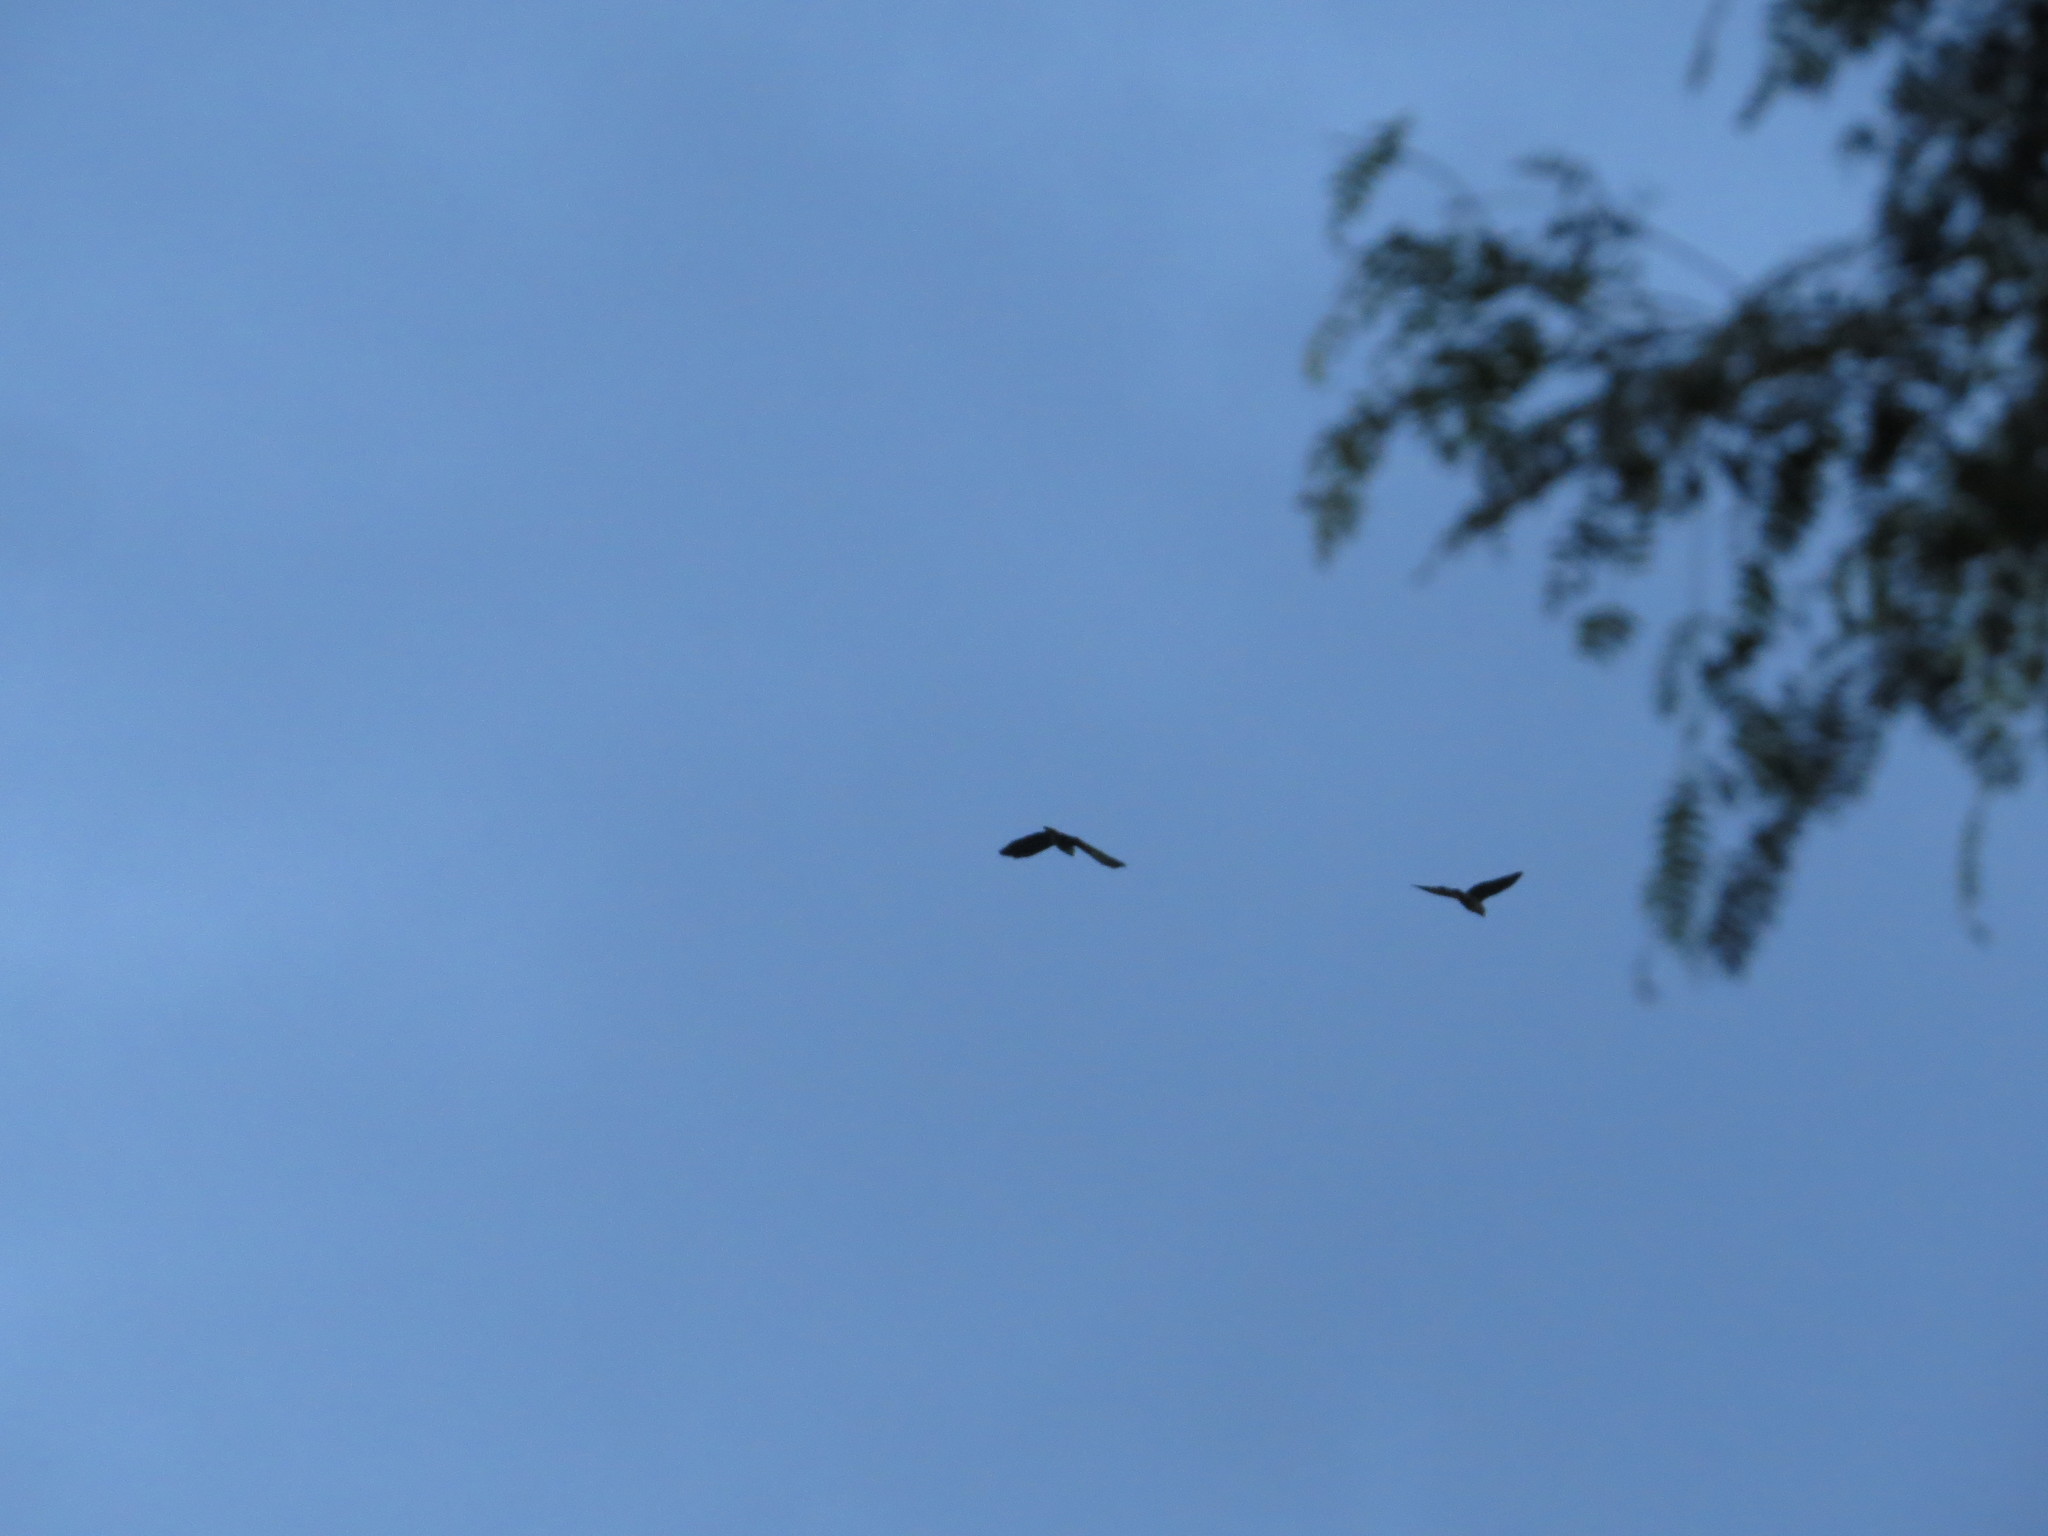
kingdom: Animalia
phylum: Chordata
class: Aves
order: Psittaciformes
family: Psittacidae
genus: Pionus
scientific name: Pionus maximiliani
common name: Scaly-headed parrot
